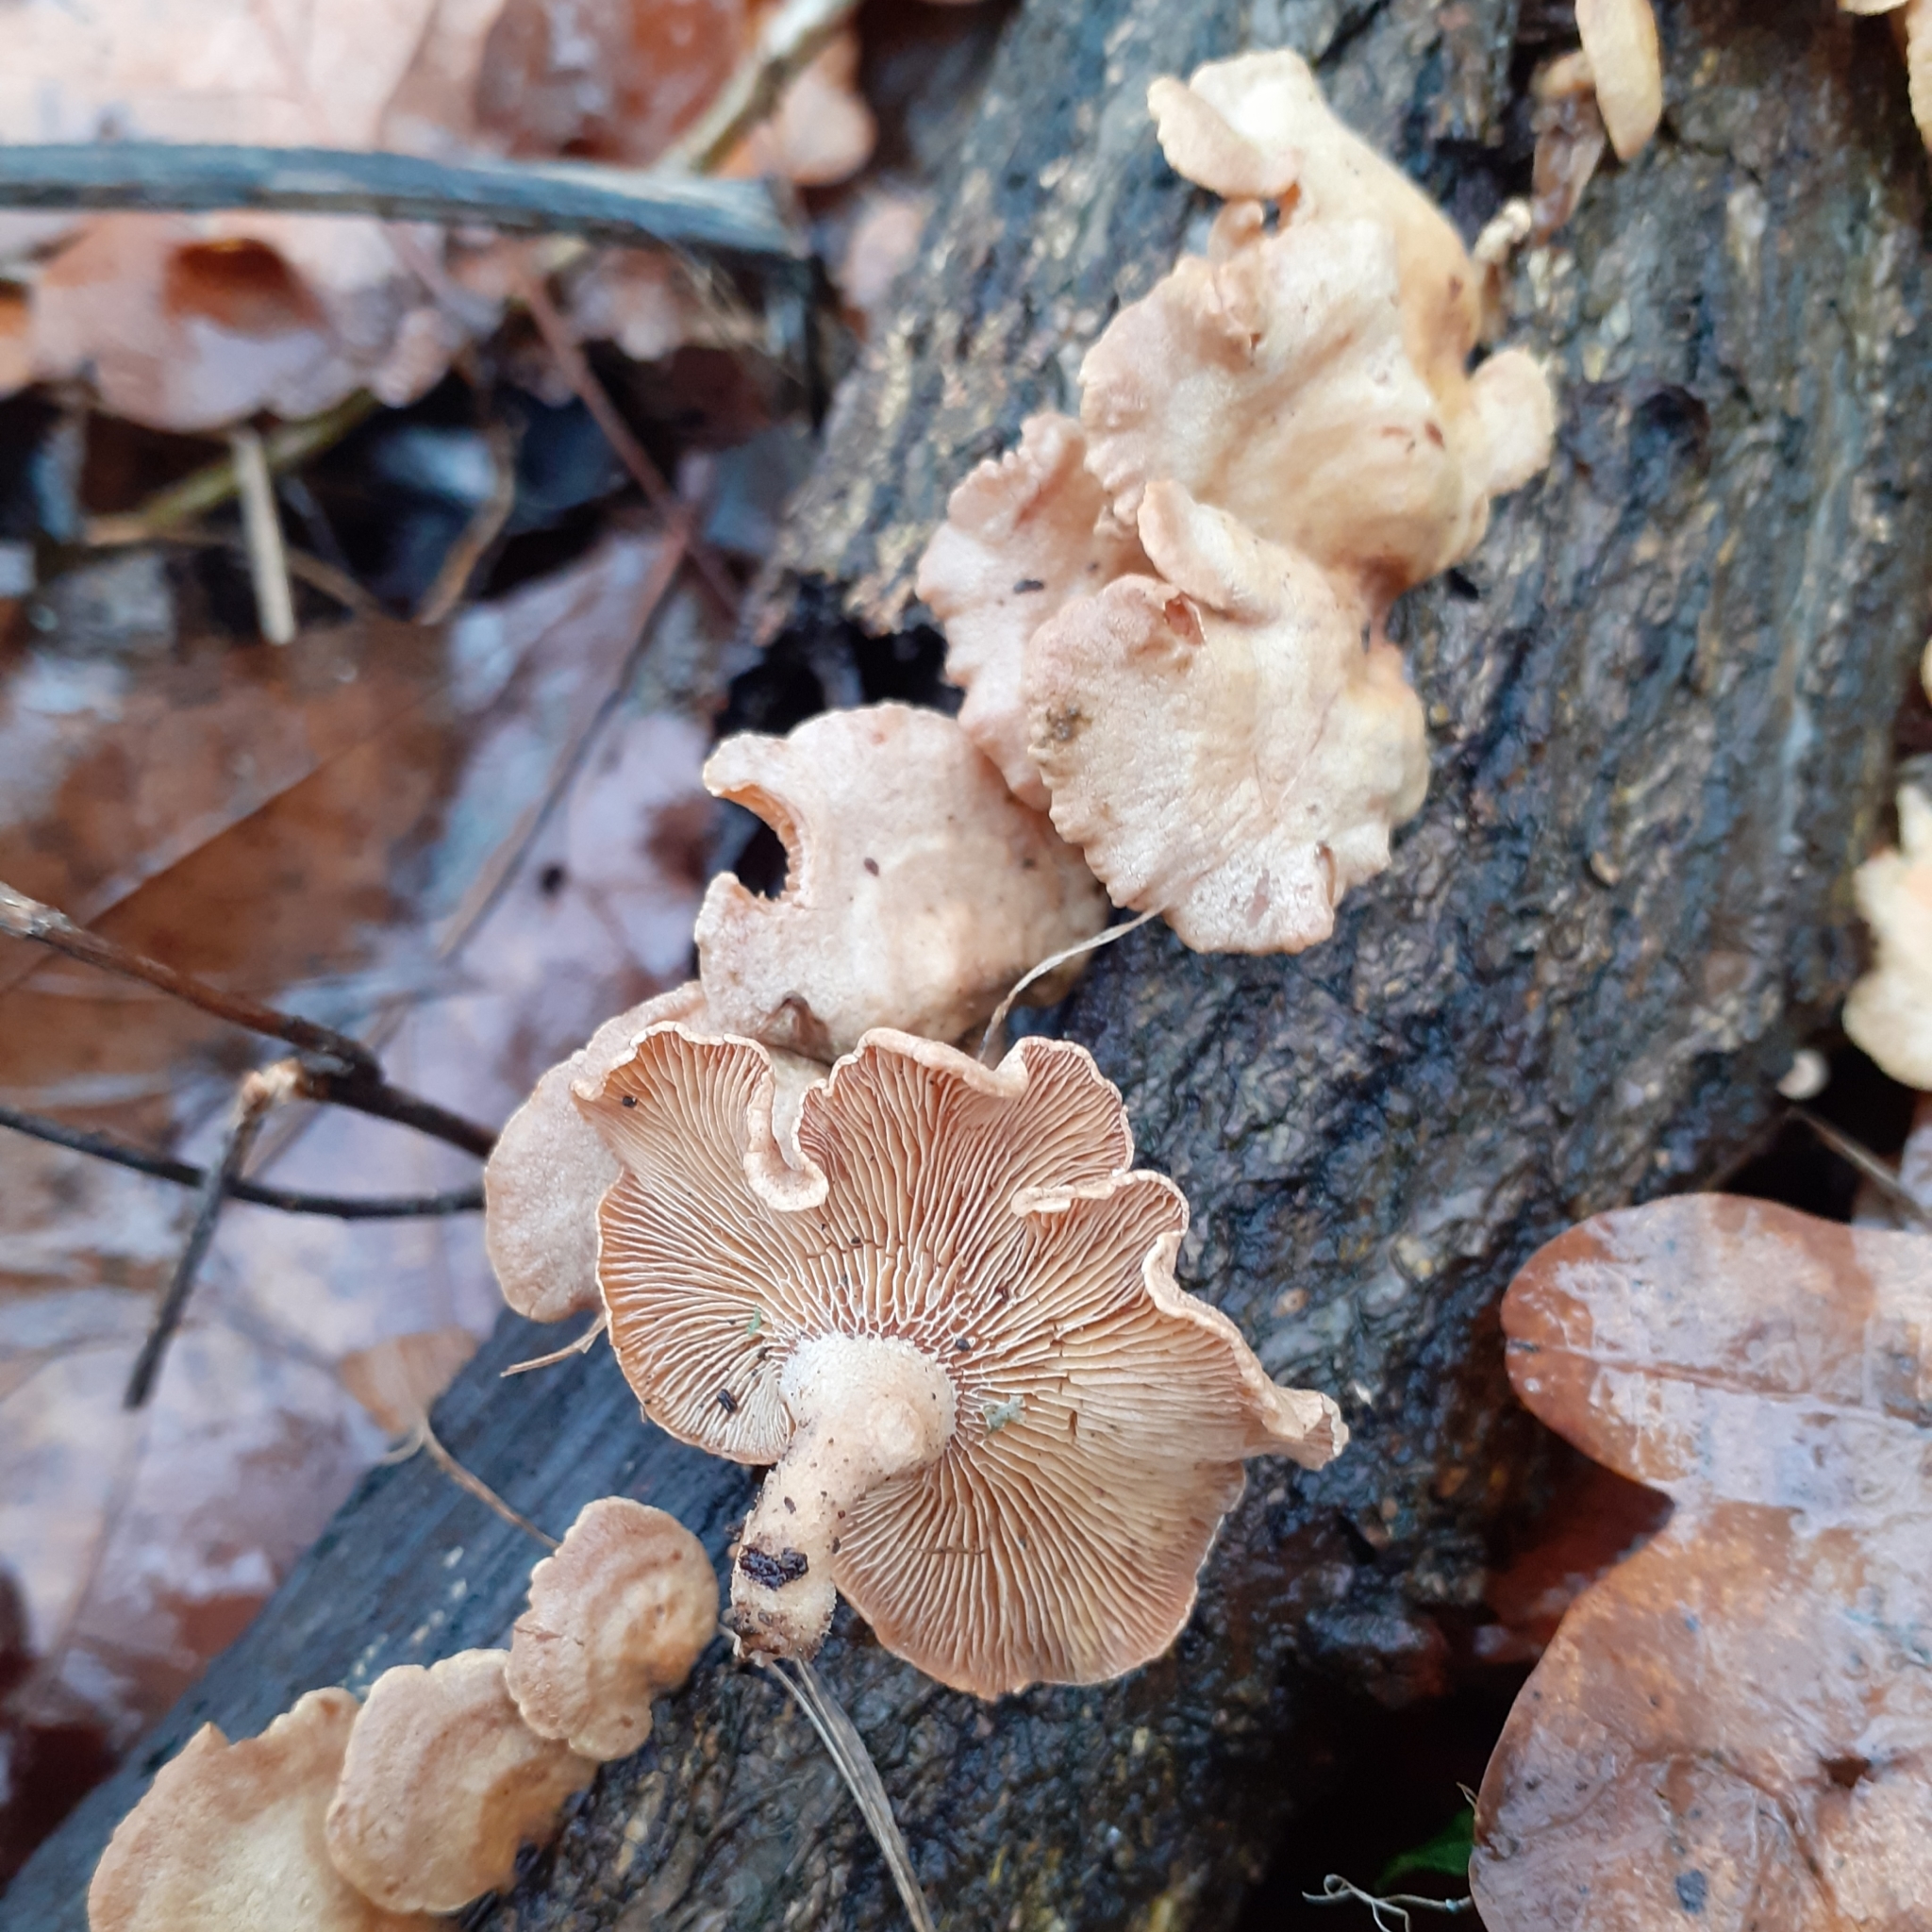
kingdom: Fungi
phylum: Basidiomycota
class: Agaricomycetes
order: Agaricales
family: Mycenaceae
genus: Panellus
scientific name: Panellus stipticus
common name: Bitter oysterling
